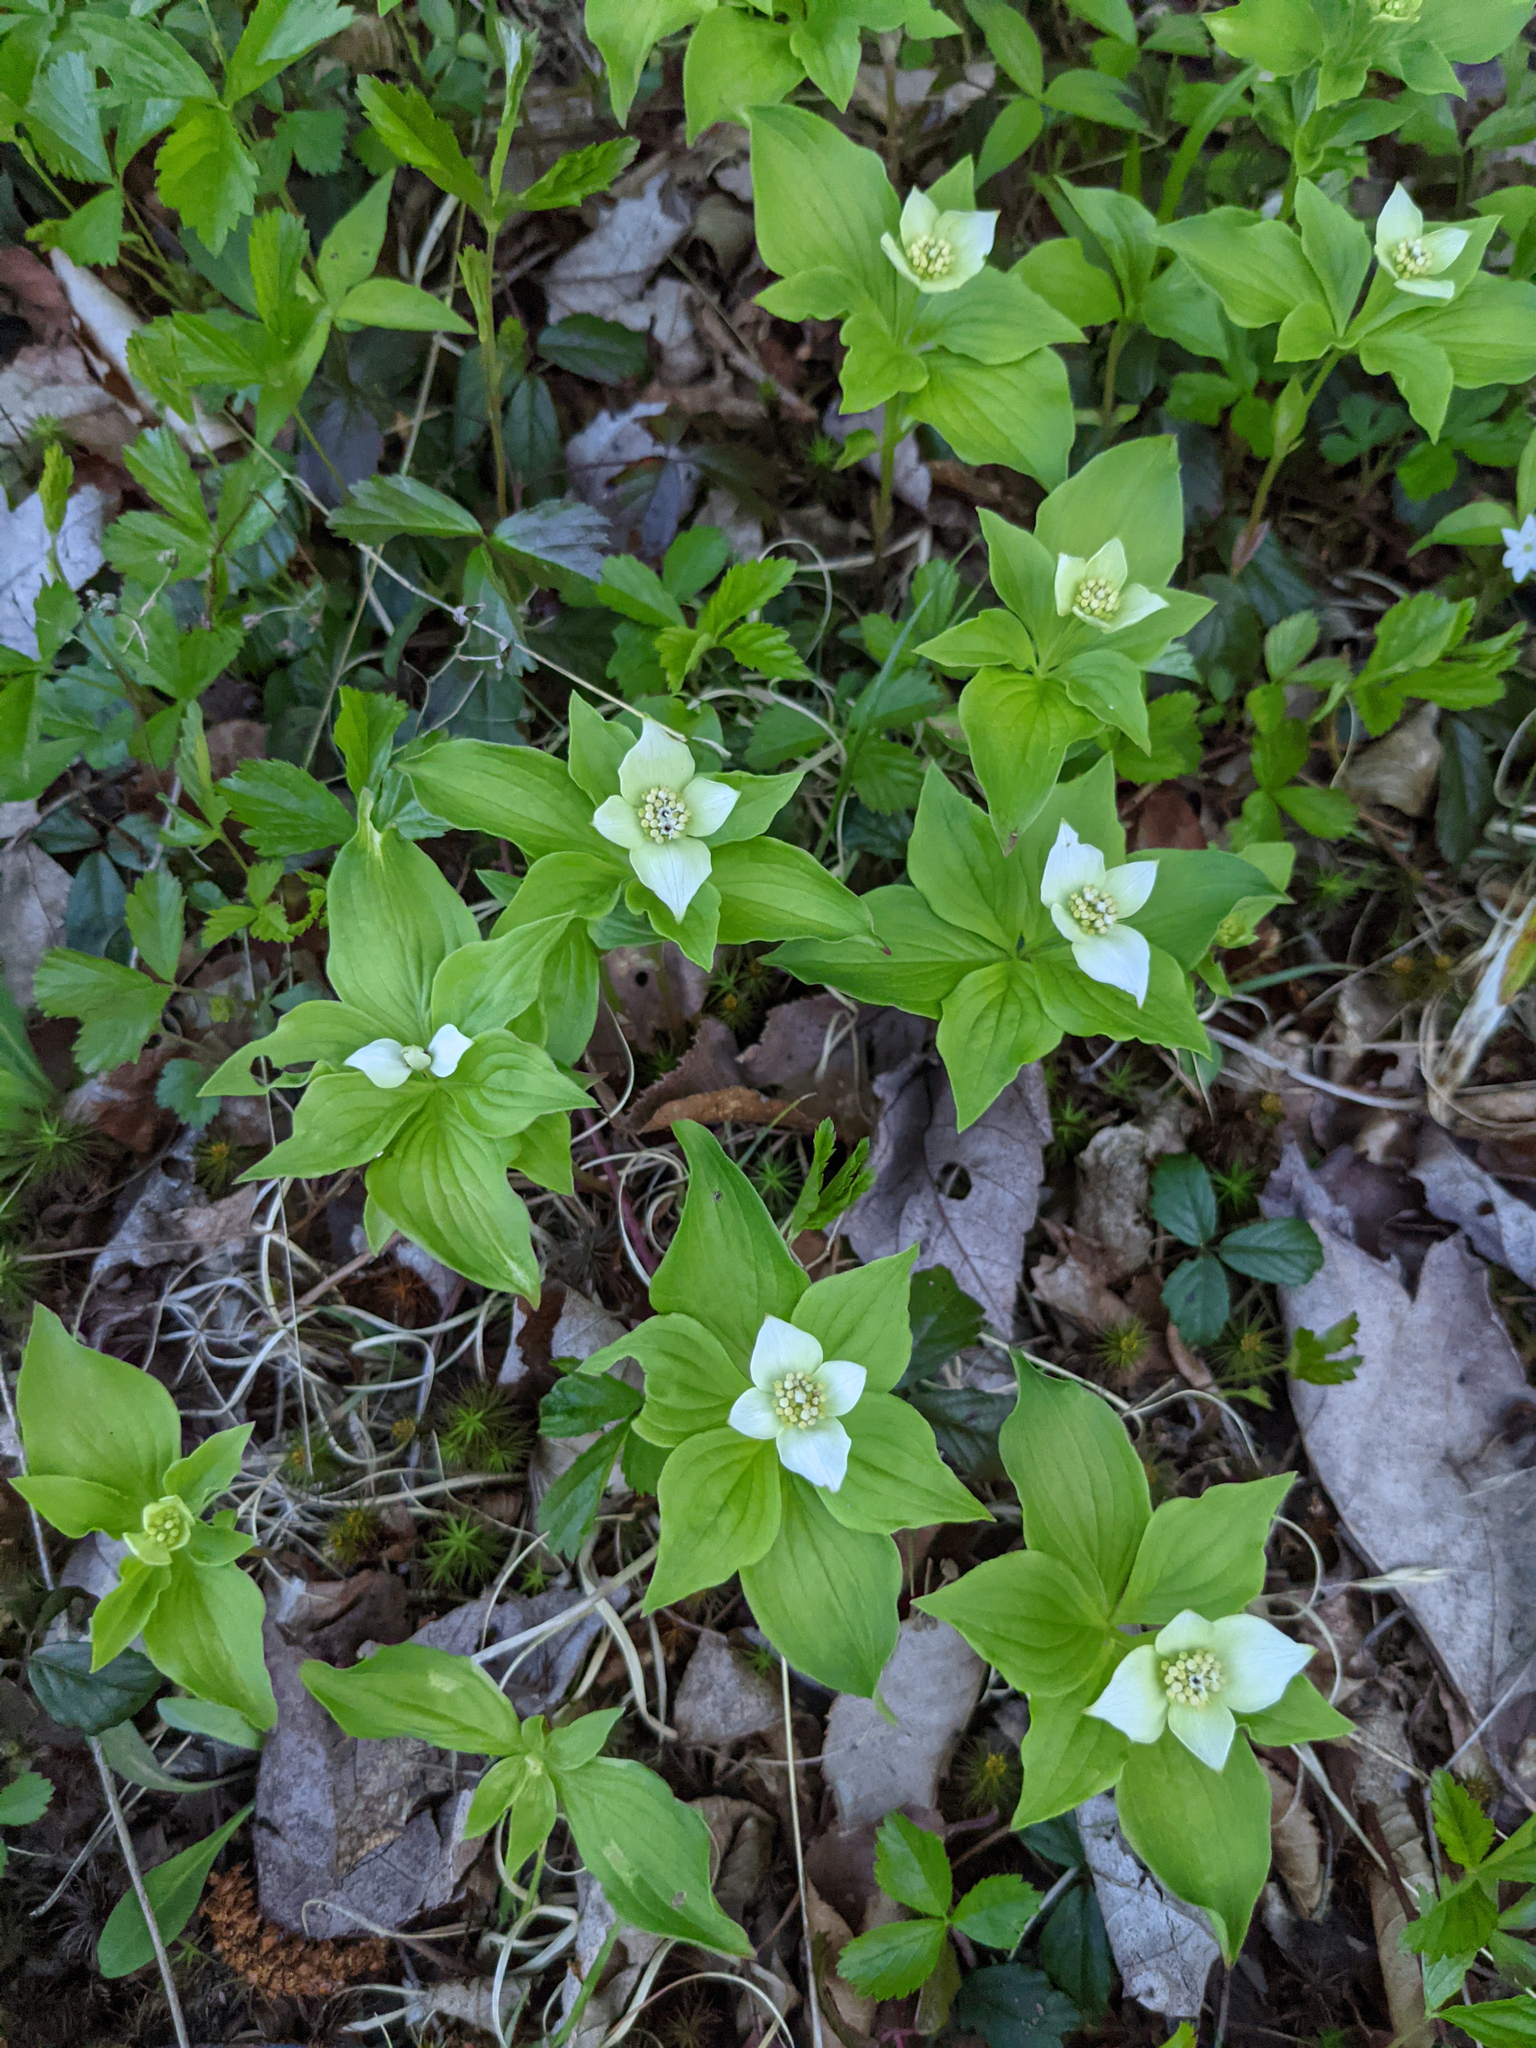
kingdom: Plantae
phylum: Tracheophyta
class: Magnoliopsida
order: Cornales
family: Cornaceae
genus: Cornus
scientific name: Cornus canadensis
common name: Creeping dogwood
